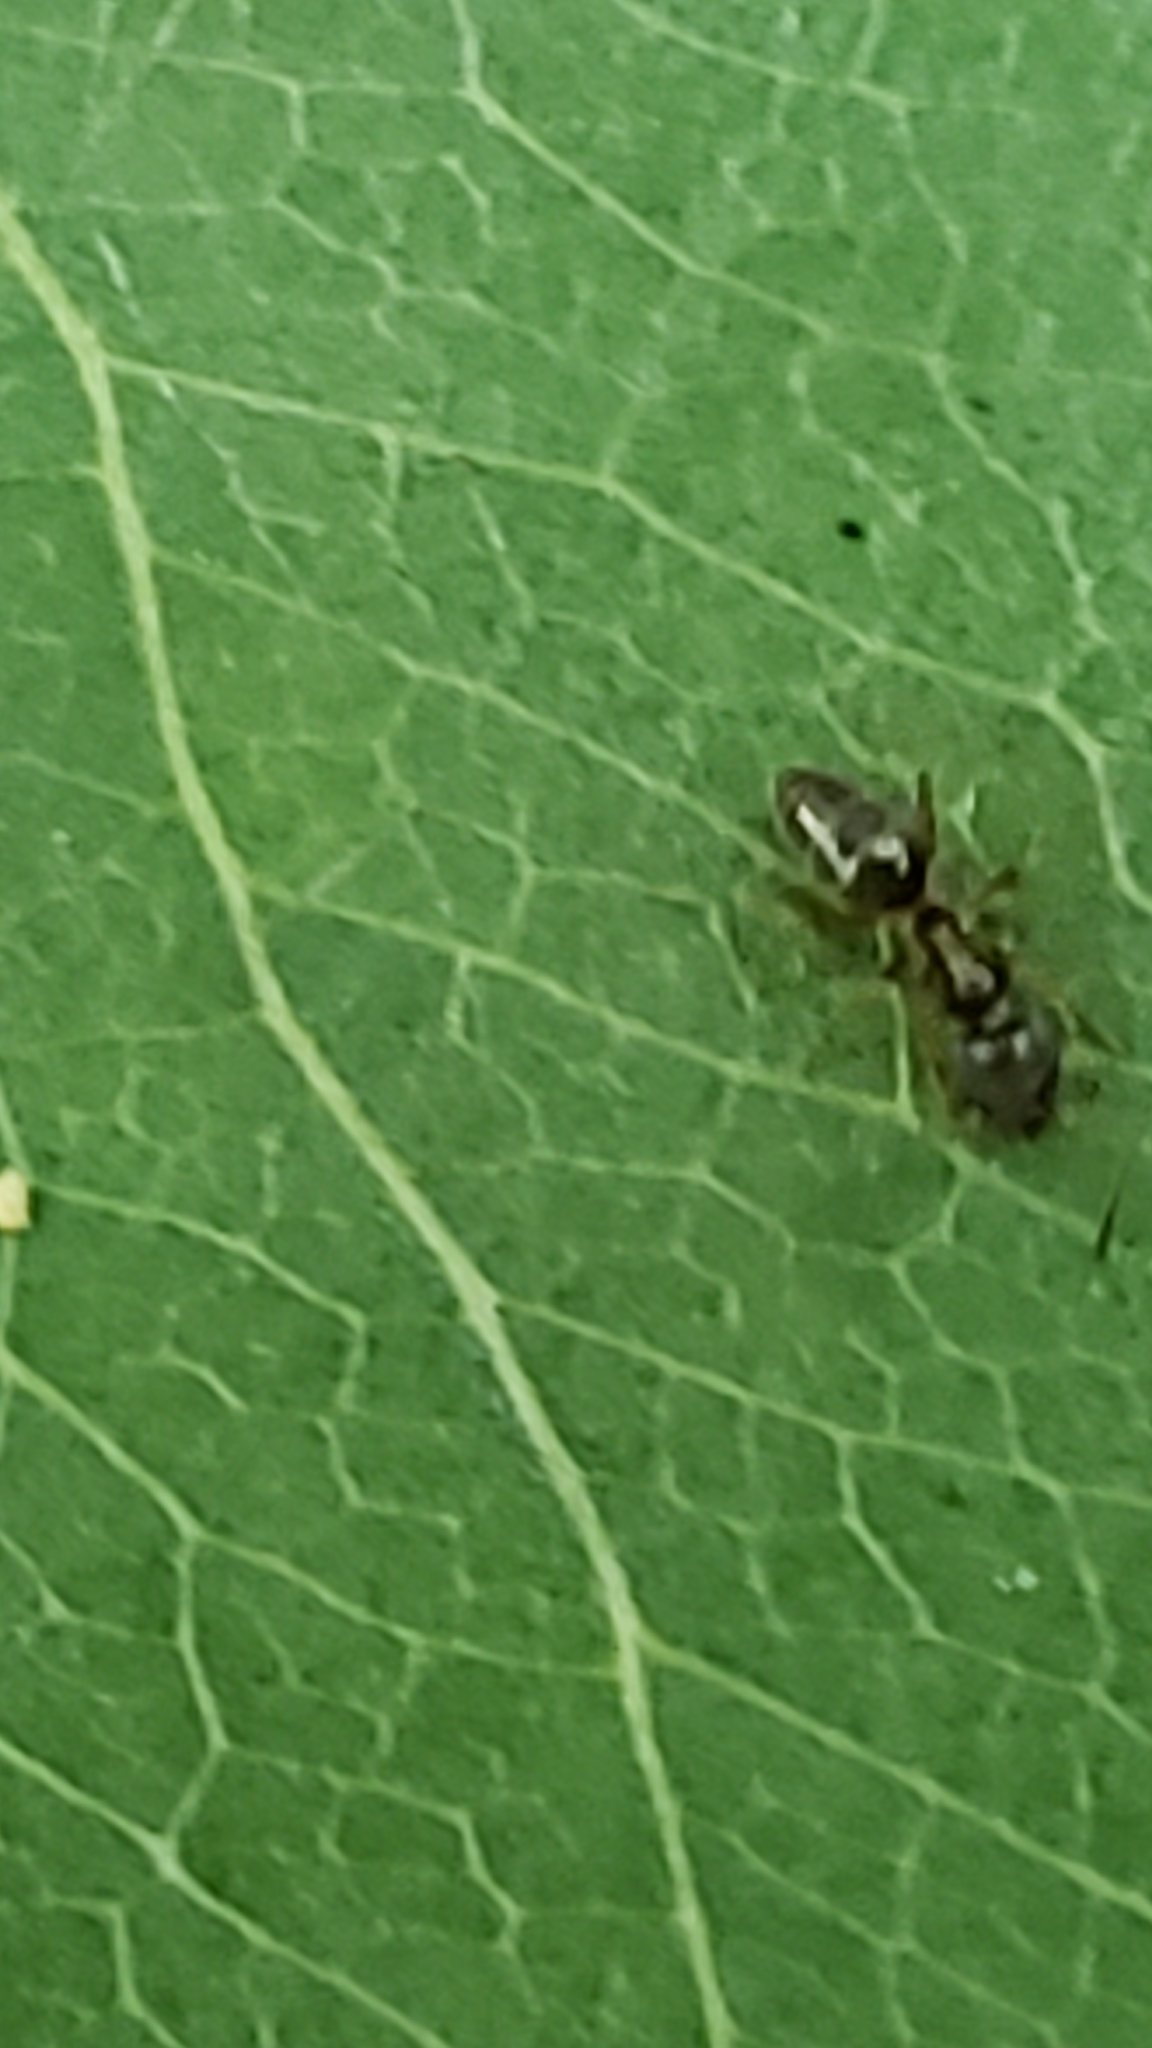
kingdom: Animalia
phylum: Arthropoda
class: Insecta
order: Hymenoptera
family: Formicidae
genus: Tapinoma
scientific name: Tapinoma sessile
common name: Odorous house ant
